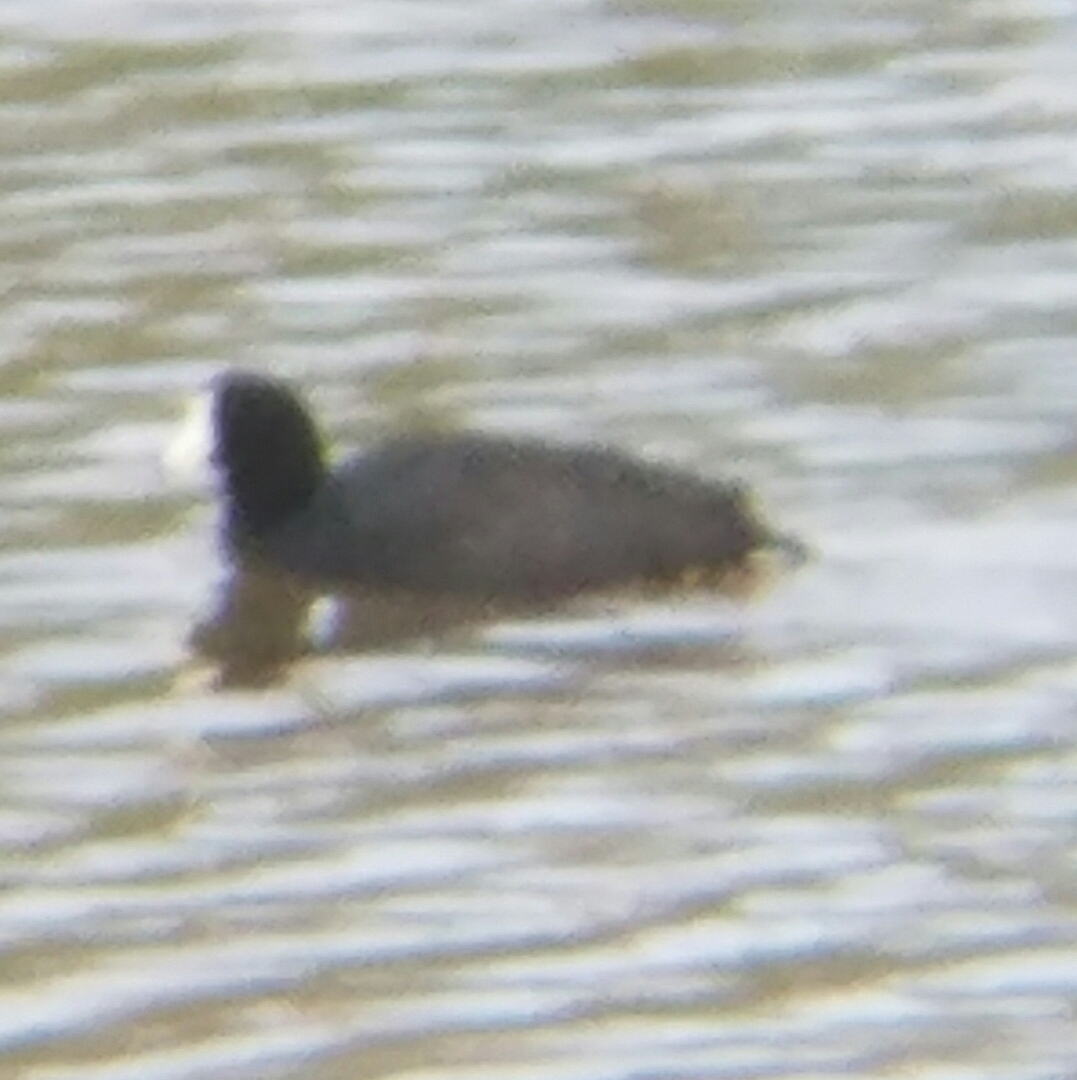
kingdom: Animalia
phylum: Chordata
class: Aves
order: Gruiformes
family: Rallidae
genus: Fulica
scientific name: Fulica americana
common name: American coot
